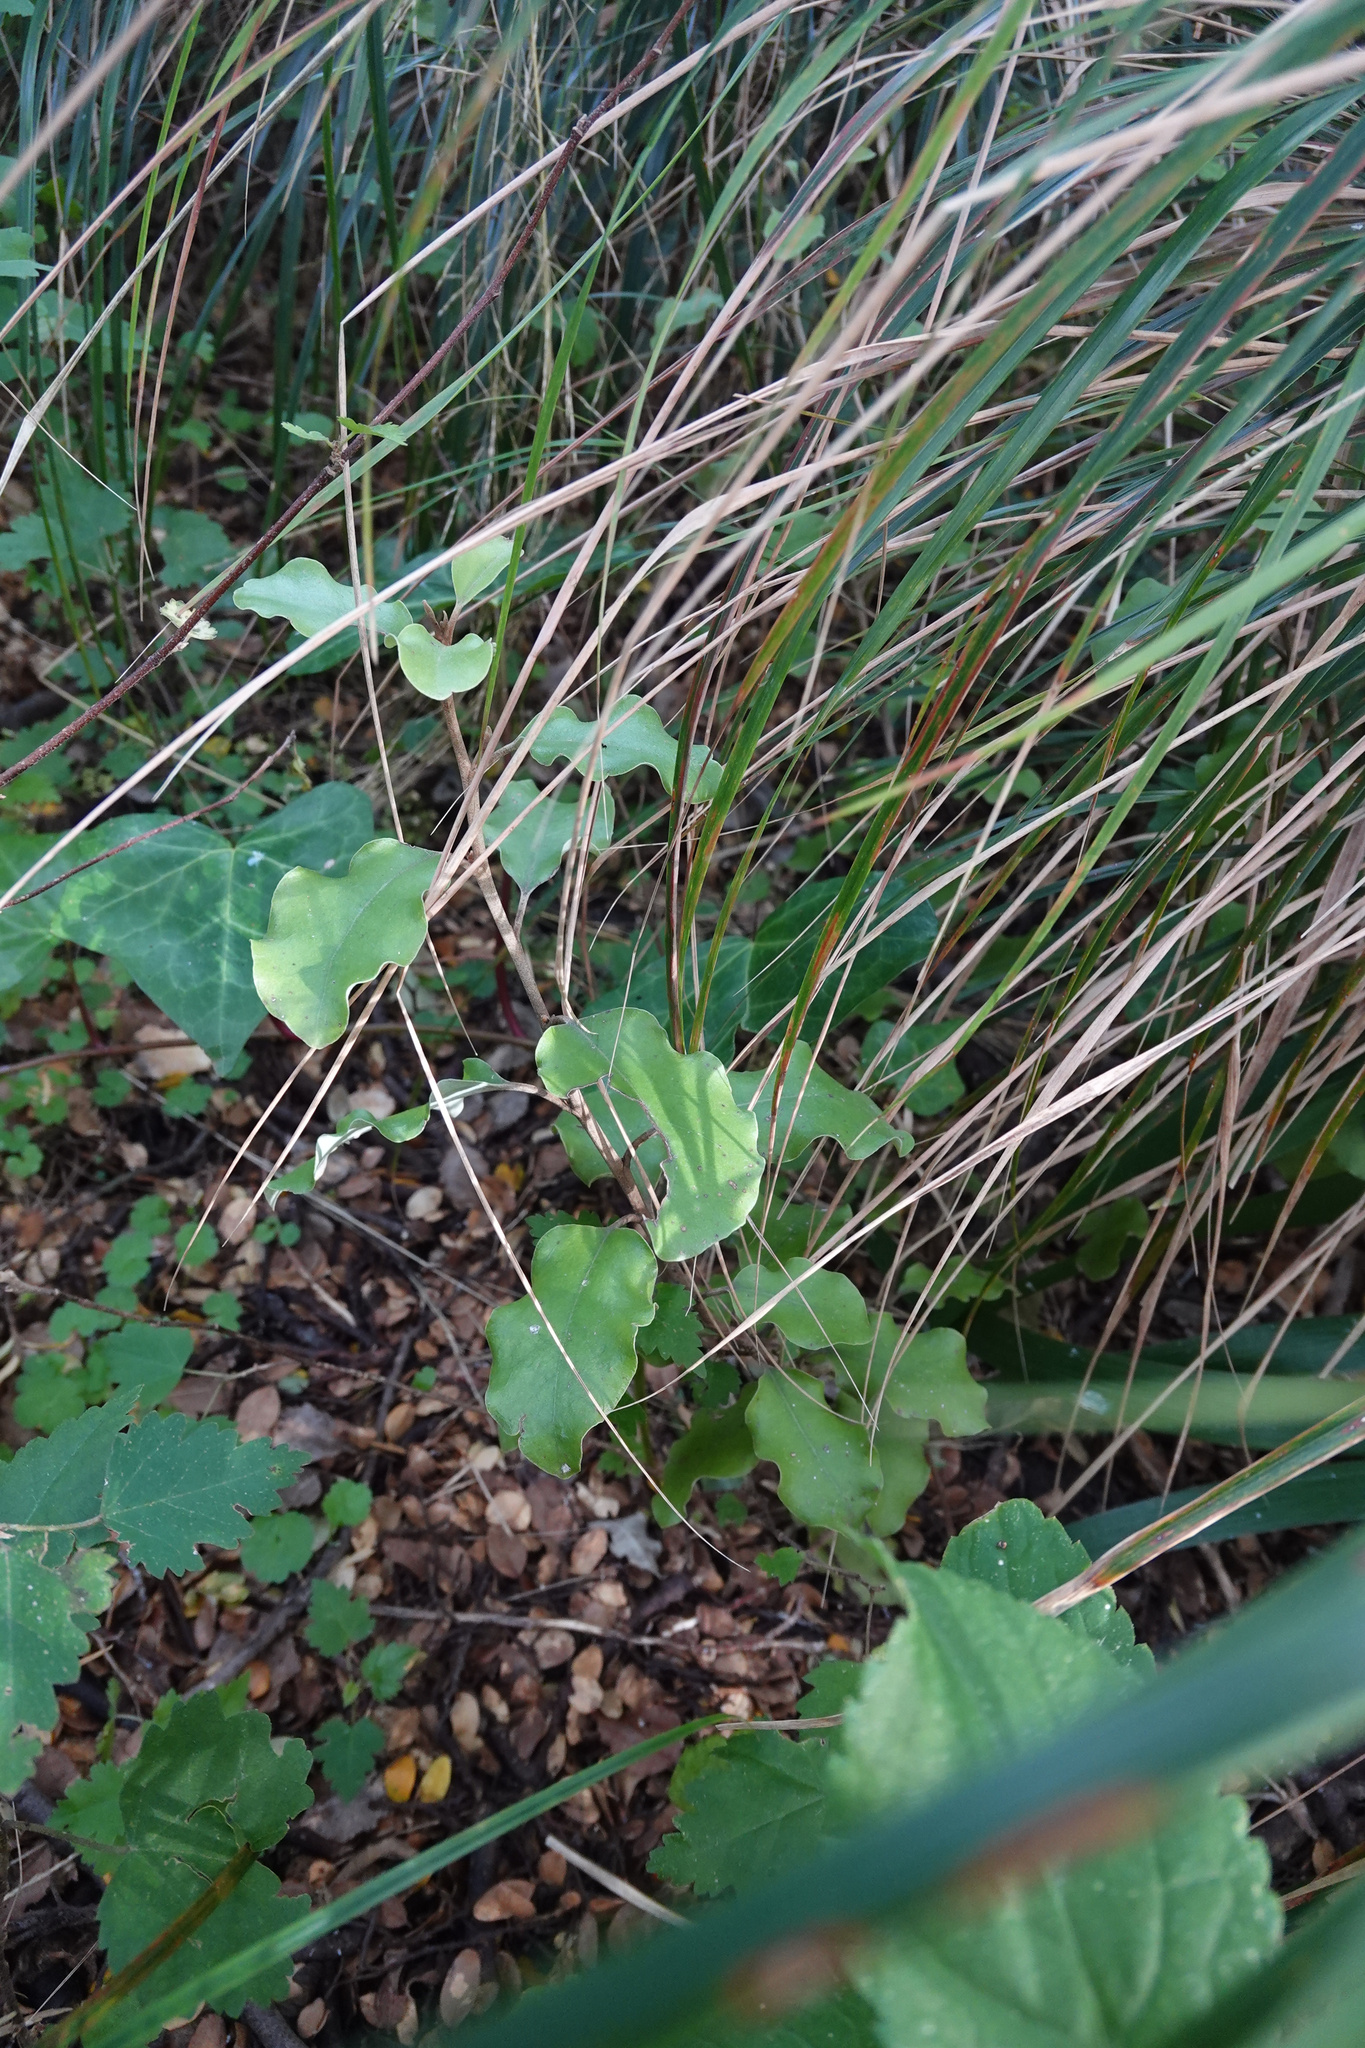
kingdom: Plantae
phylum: Tracheophyta
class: Magnoliopsida
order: Asterales
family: Asteraceae
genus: Olearia
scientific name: Olearia paniculata
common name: Akiraho
